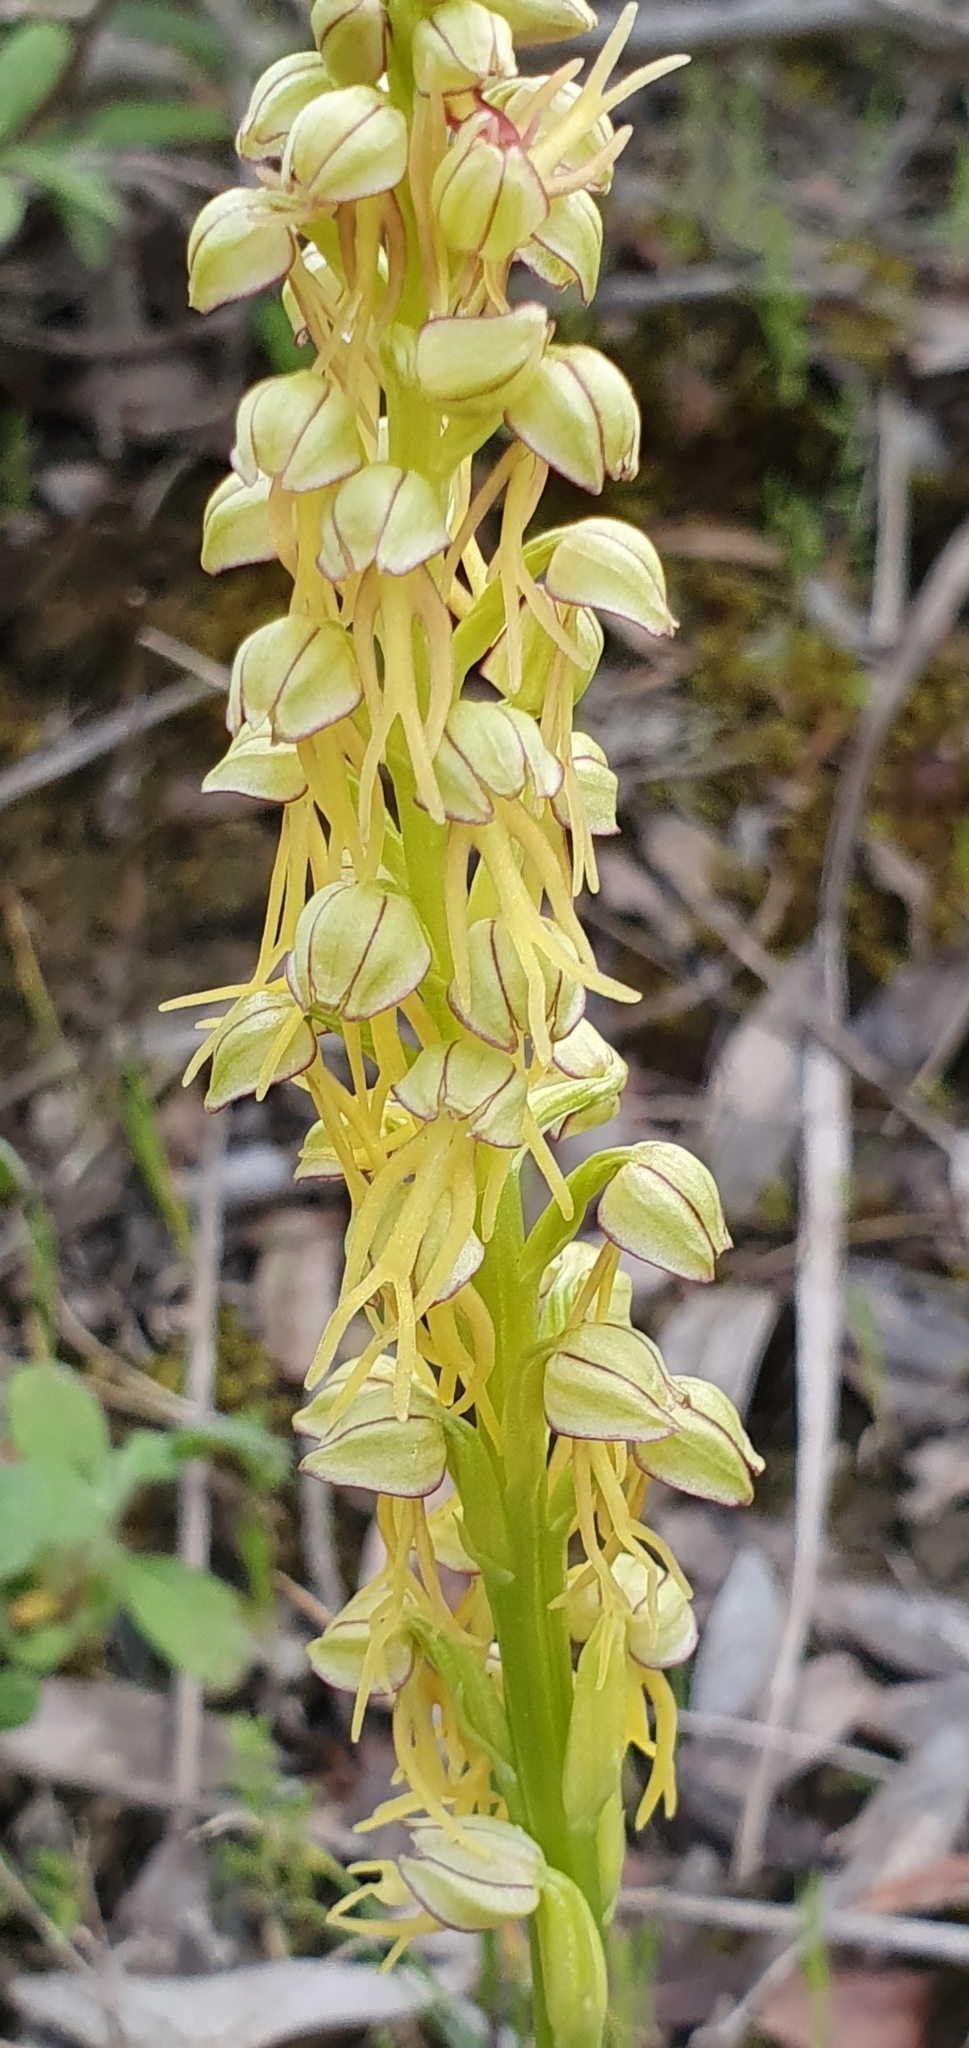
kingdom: Plantae
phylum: Tracheophyta
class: Liliopsida
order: Asparagales
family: Orchidaceae
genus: Orchis
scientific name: Orchis anthropophora
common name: Man orchid
